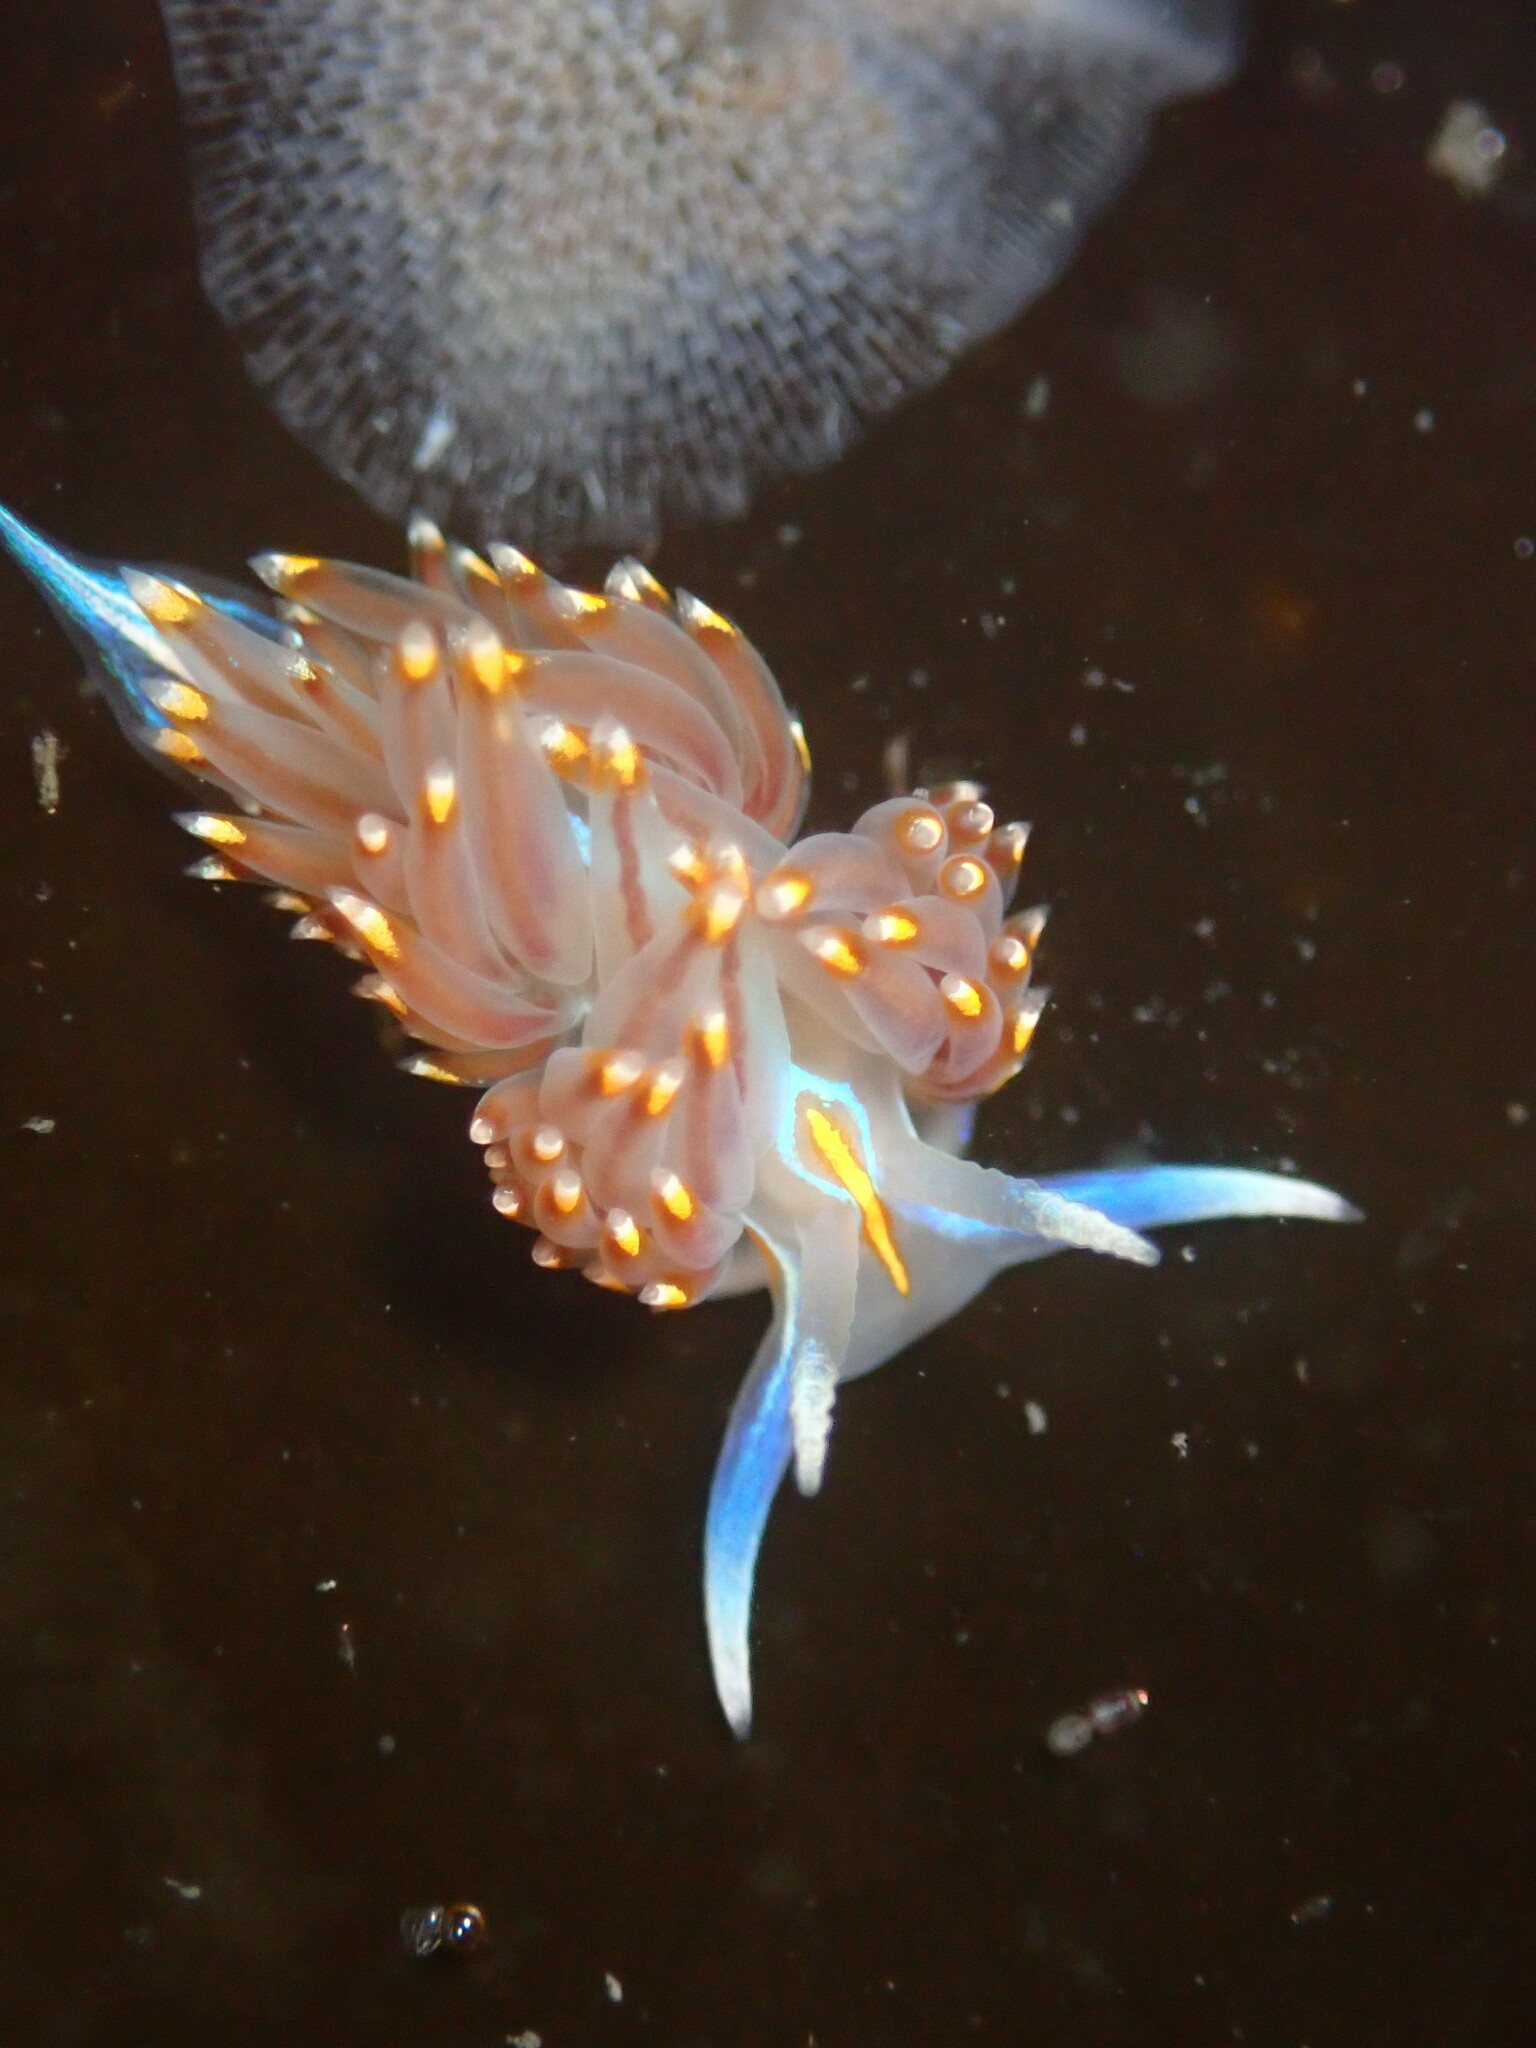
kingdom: Animalia
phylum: Mollusca
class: Gastropoda
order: Nudibranchia
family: Myrrhinidae
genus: Hermissenda
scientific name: Hermissenda opalescens
